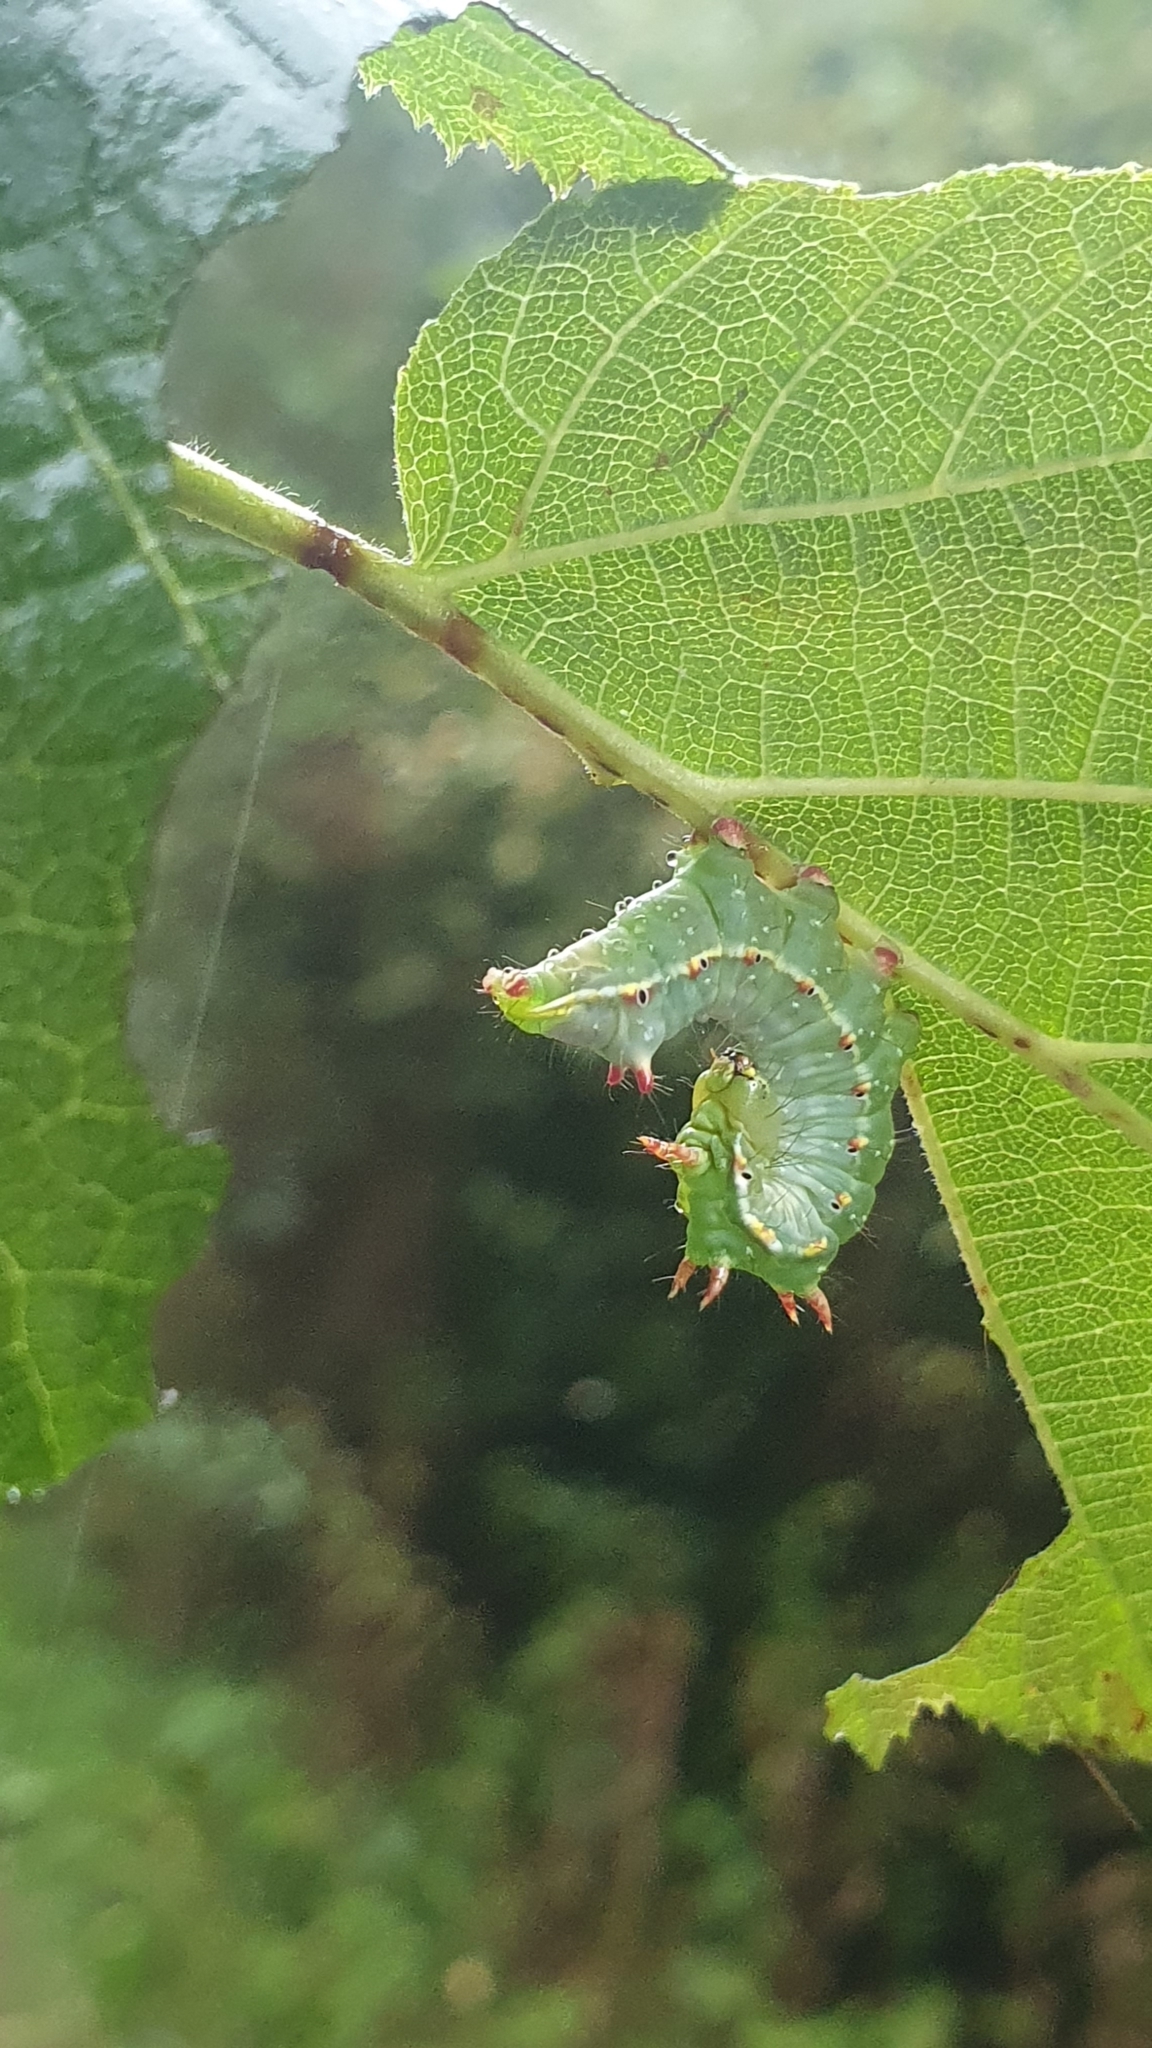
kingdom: Animalia
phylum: Arthropoda
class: Insecta
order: Lepidoptera
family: Notodontidae
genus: Ptilodon
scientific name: Ptilodon capucina
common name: Coxcomb prominent
